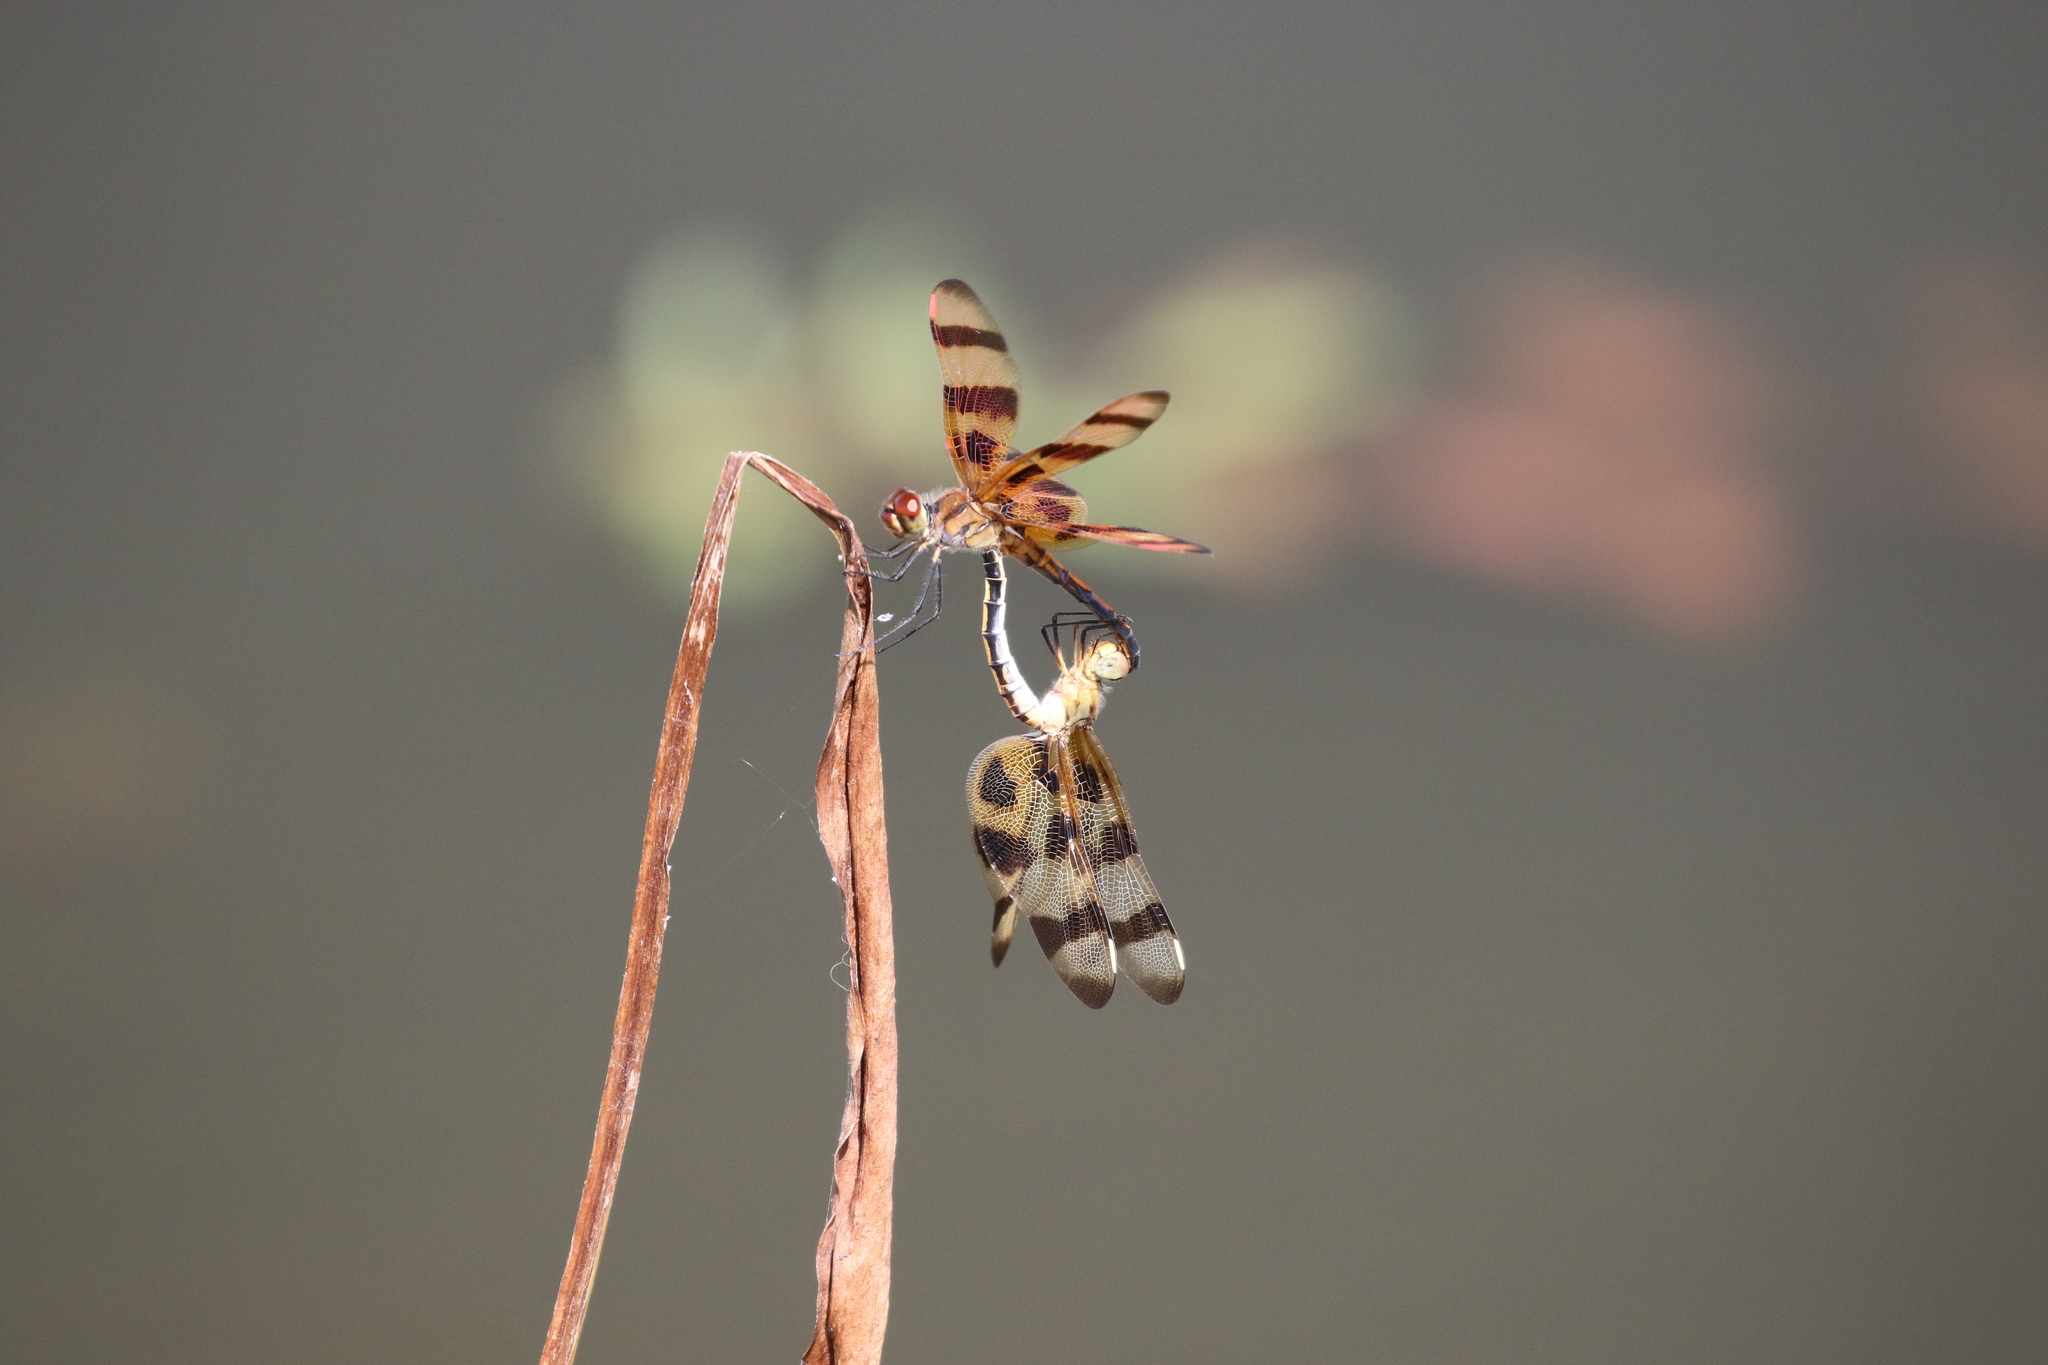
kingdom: Animalia
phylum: Arthropoda
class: Insecta
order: Odonata
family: Libellulidae
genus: Celithemis
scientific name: Celithemis eponina
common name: Halloween pennant
